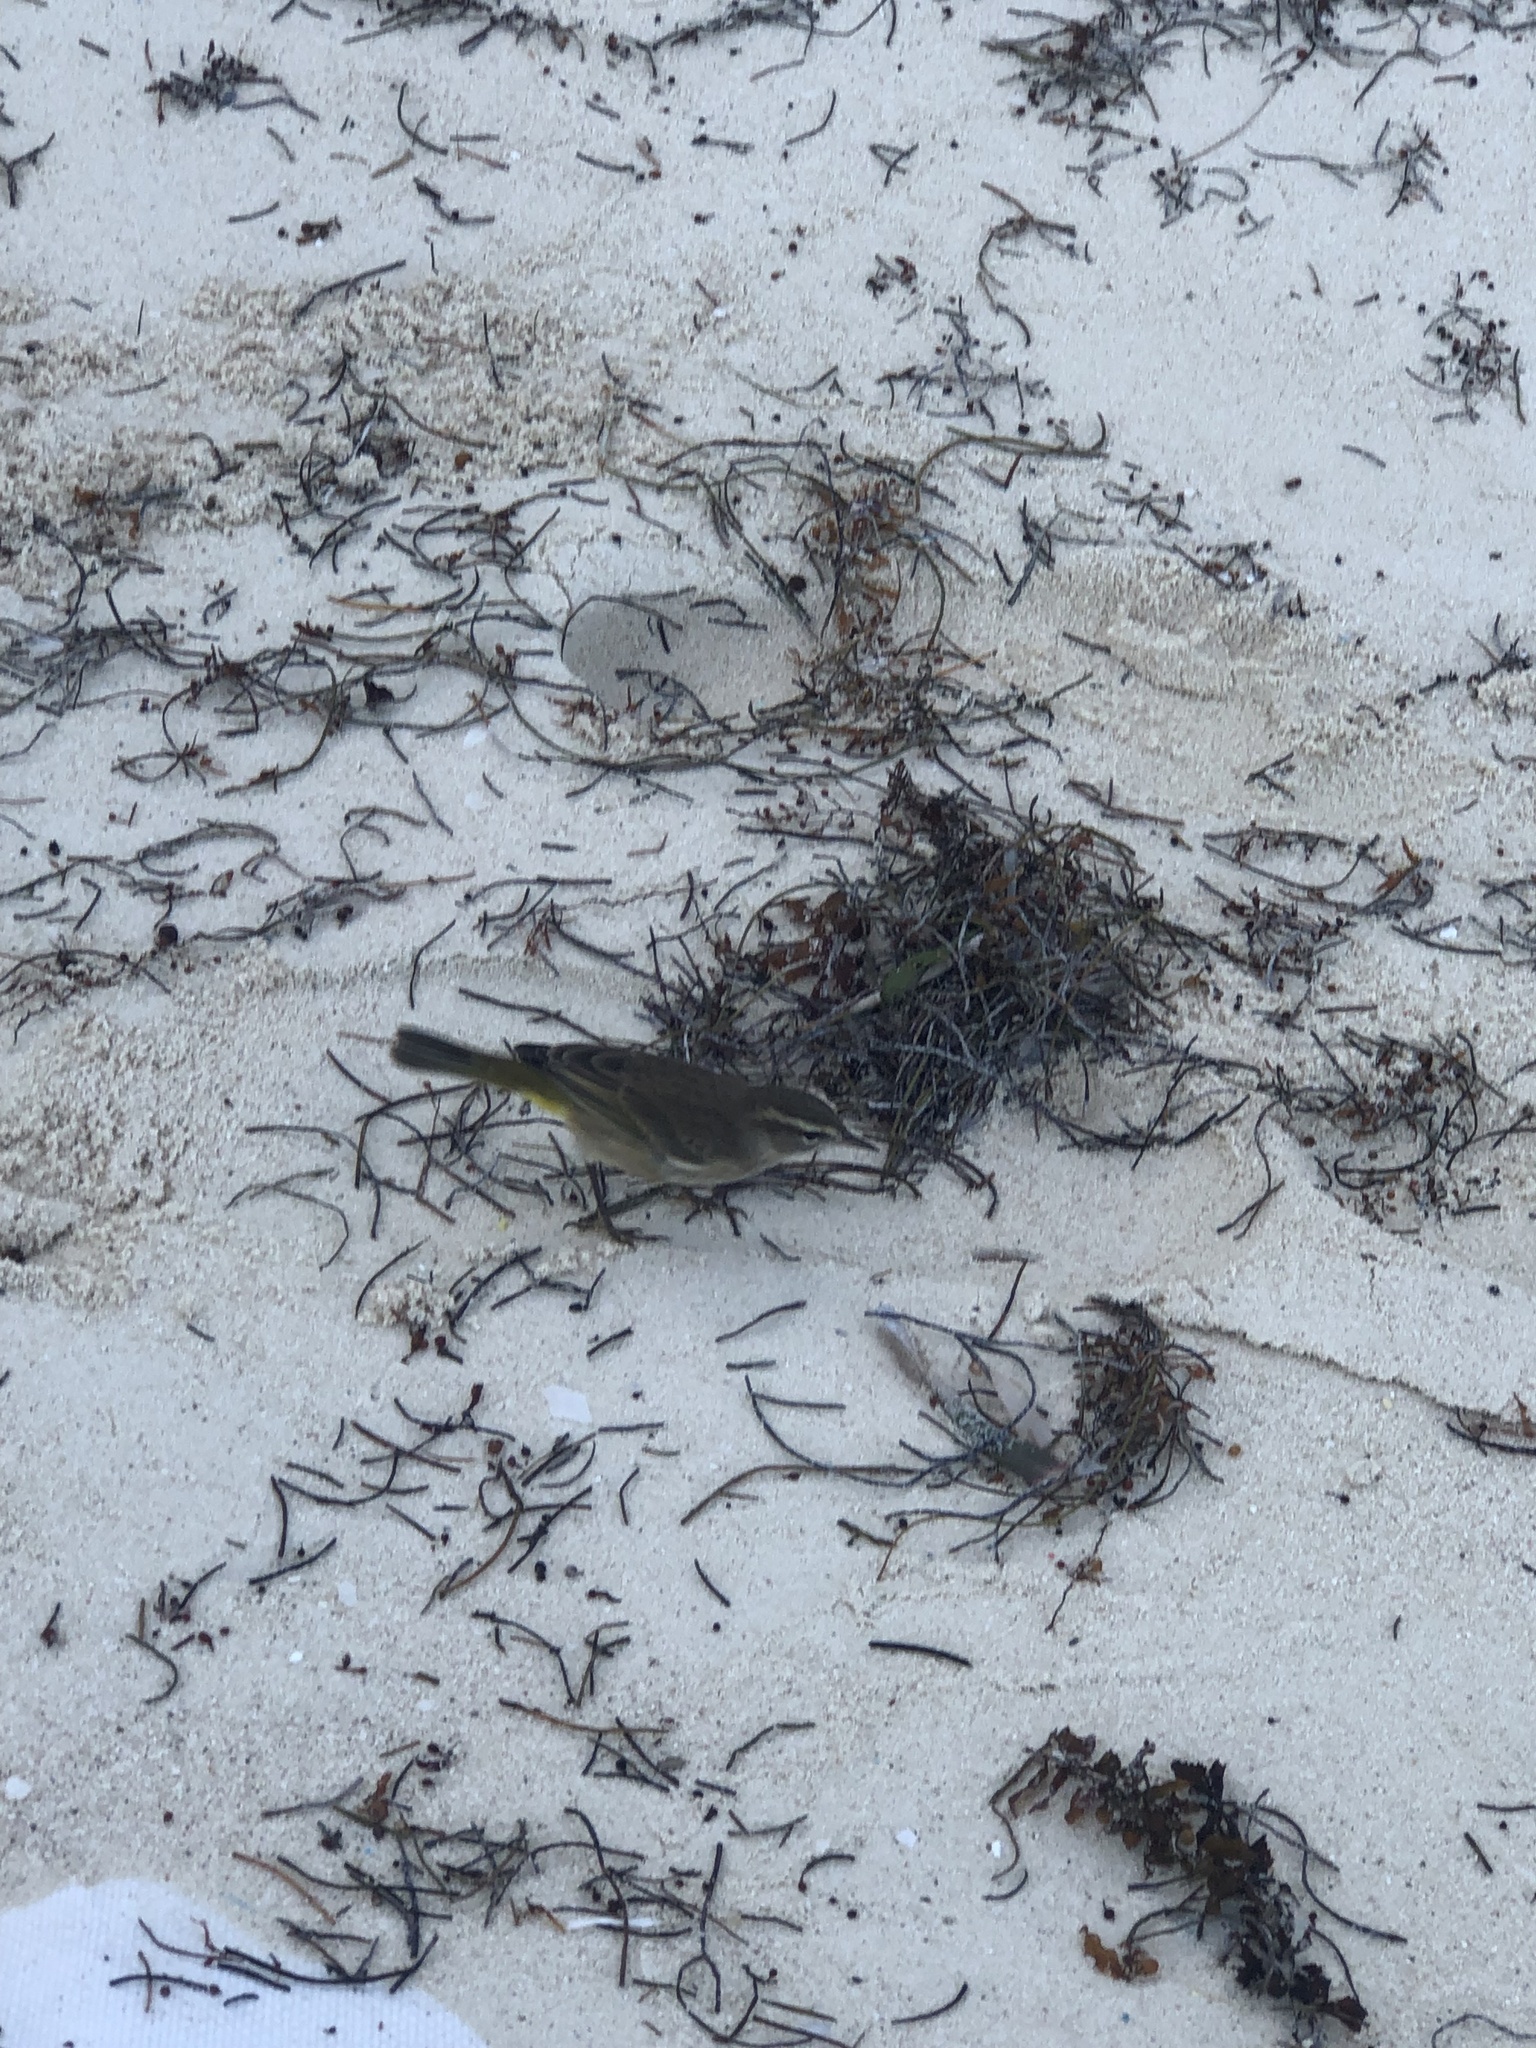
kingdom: Animalia
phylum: Chordata
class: Aves
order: Passeriformes
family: Parulidae
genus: Setophaga
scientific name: Setophaga palmarum
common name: Palm warbler
